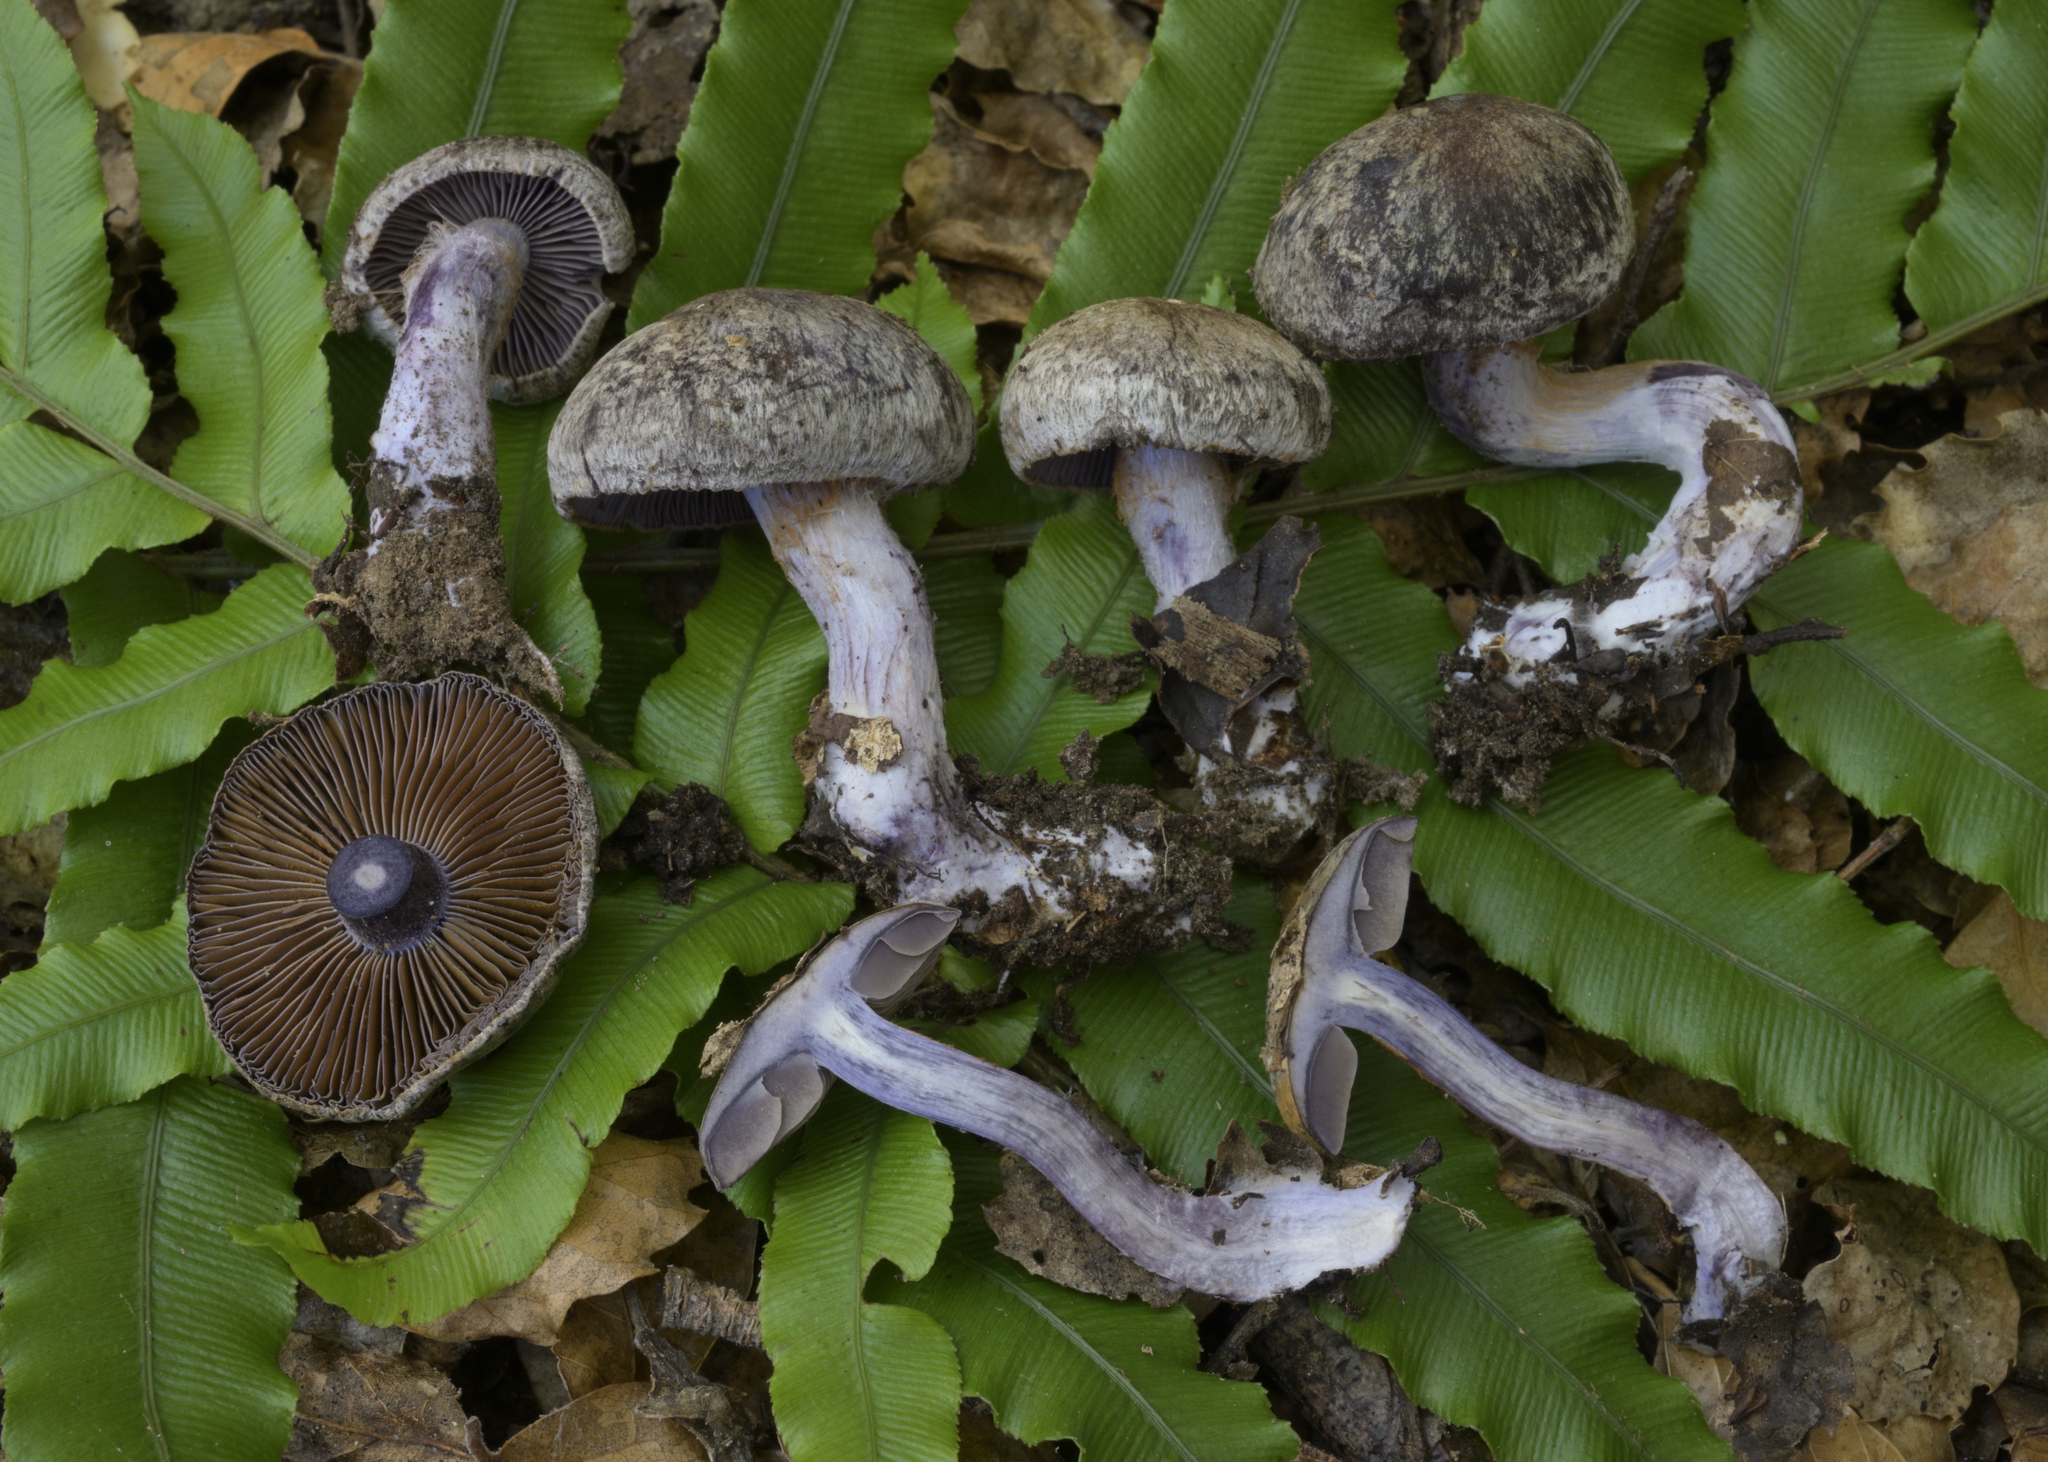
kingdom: Fungi
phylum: Basidiomycota
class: Agaricomycetes
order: Agaricales
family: Cortinariaceae
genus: Thaxterogaster
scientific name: Thaxterogaster chalybeus
